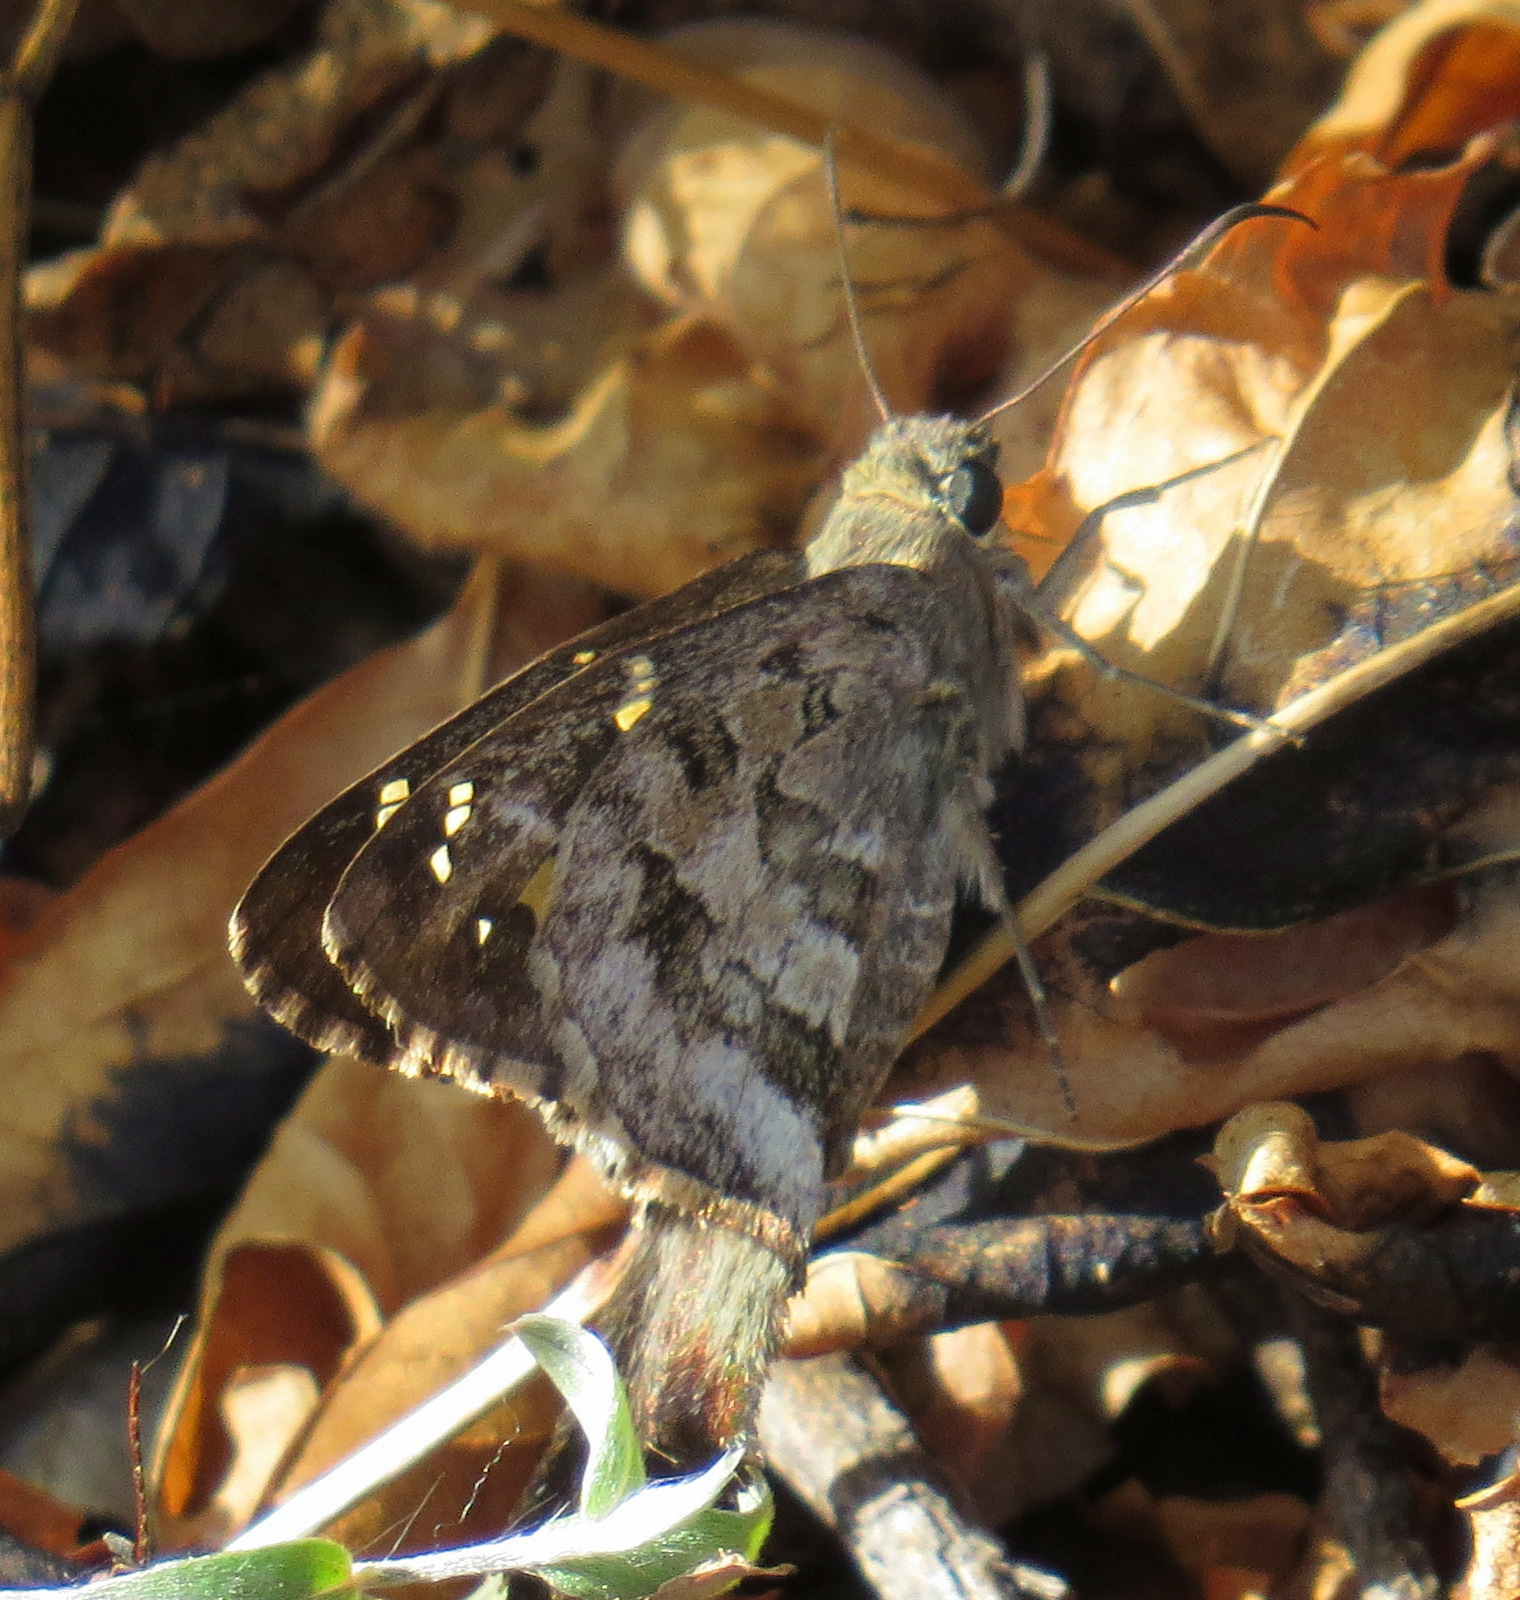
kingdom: Animalia
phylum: Arthropoda
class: Insecta
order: Lepidoptera
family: Hesperiidae
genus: Thorybes
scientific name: Thorybes
